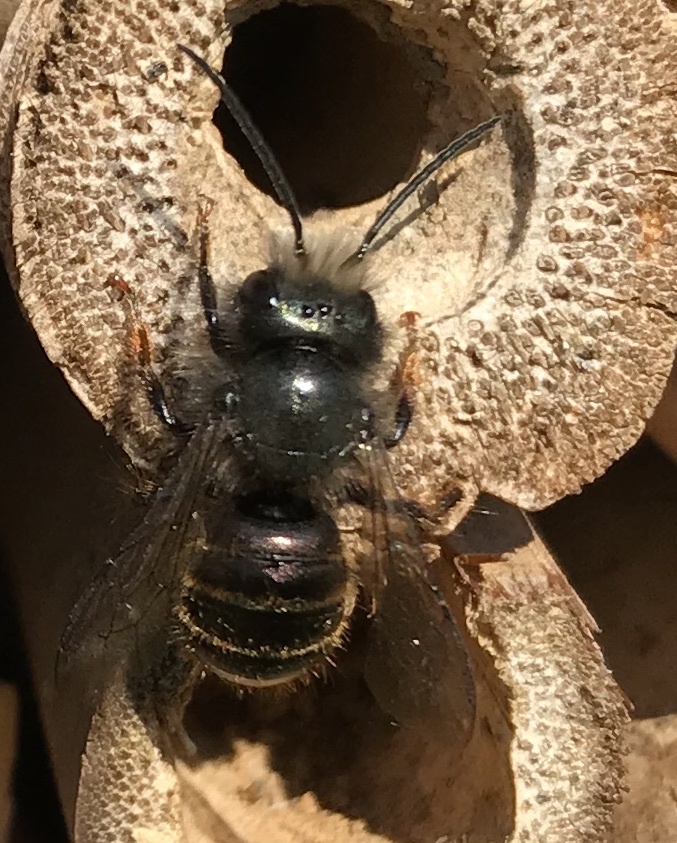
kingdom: Animalia
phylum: Arthropoda
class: Insecta
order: Hymenoptera
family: Megachilidae
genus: Osmia
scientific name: Osmia cornuta
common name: Mason bee
